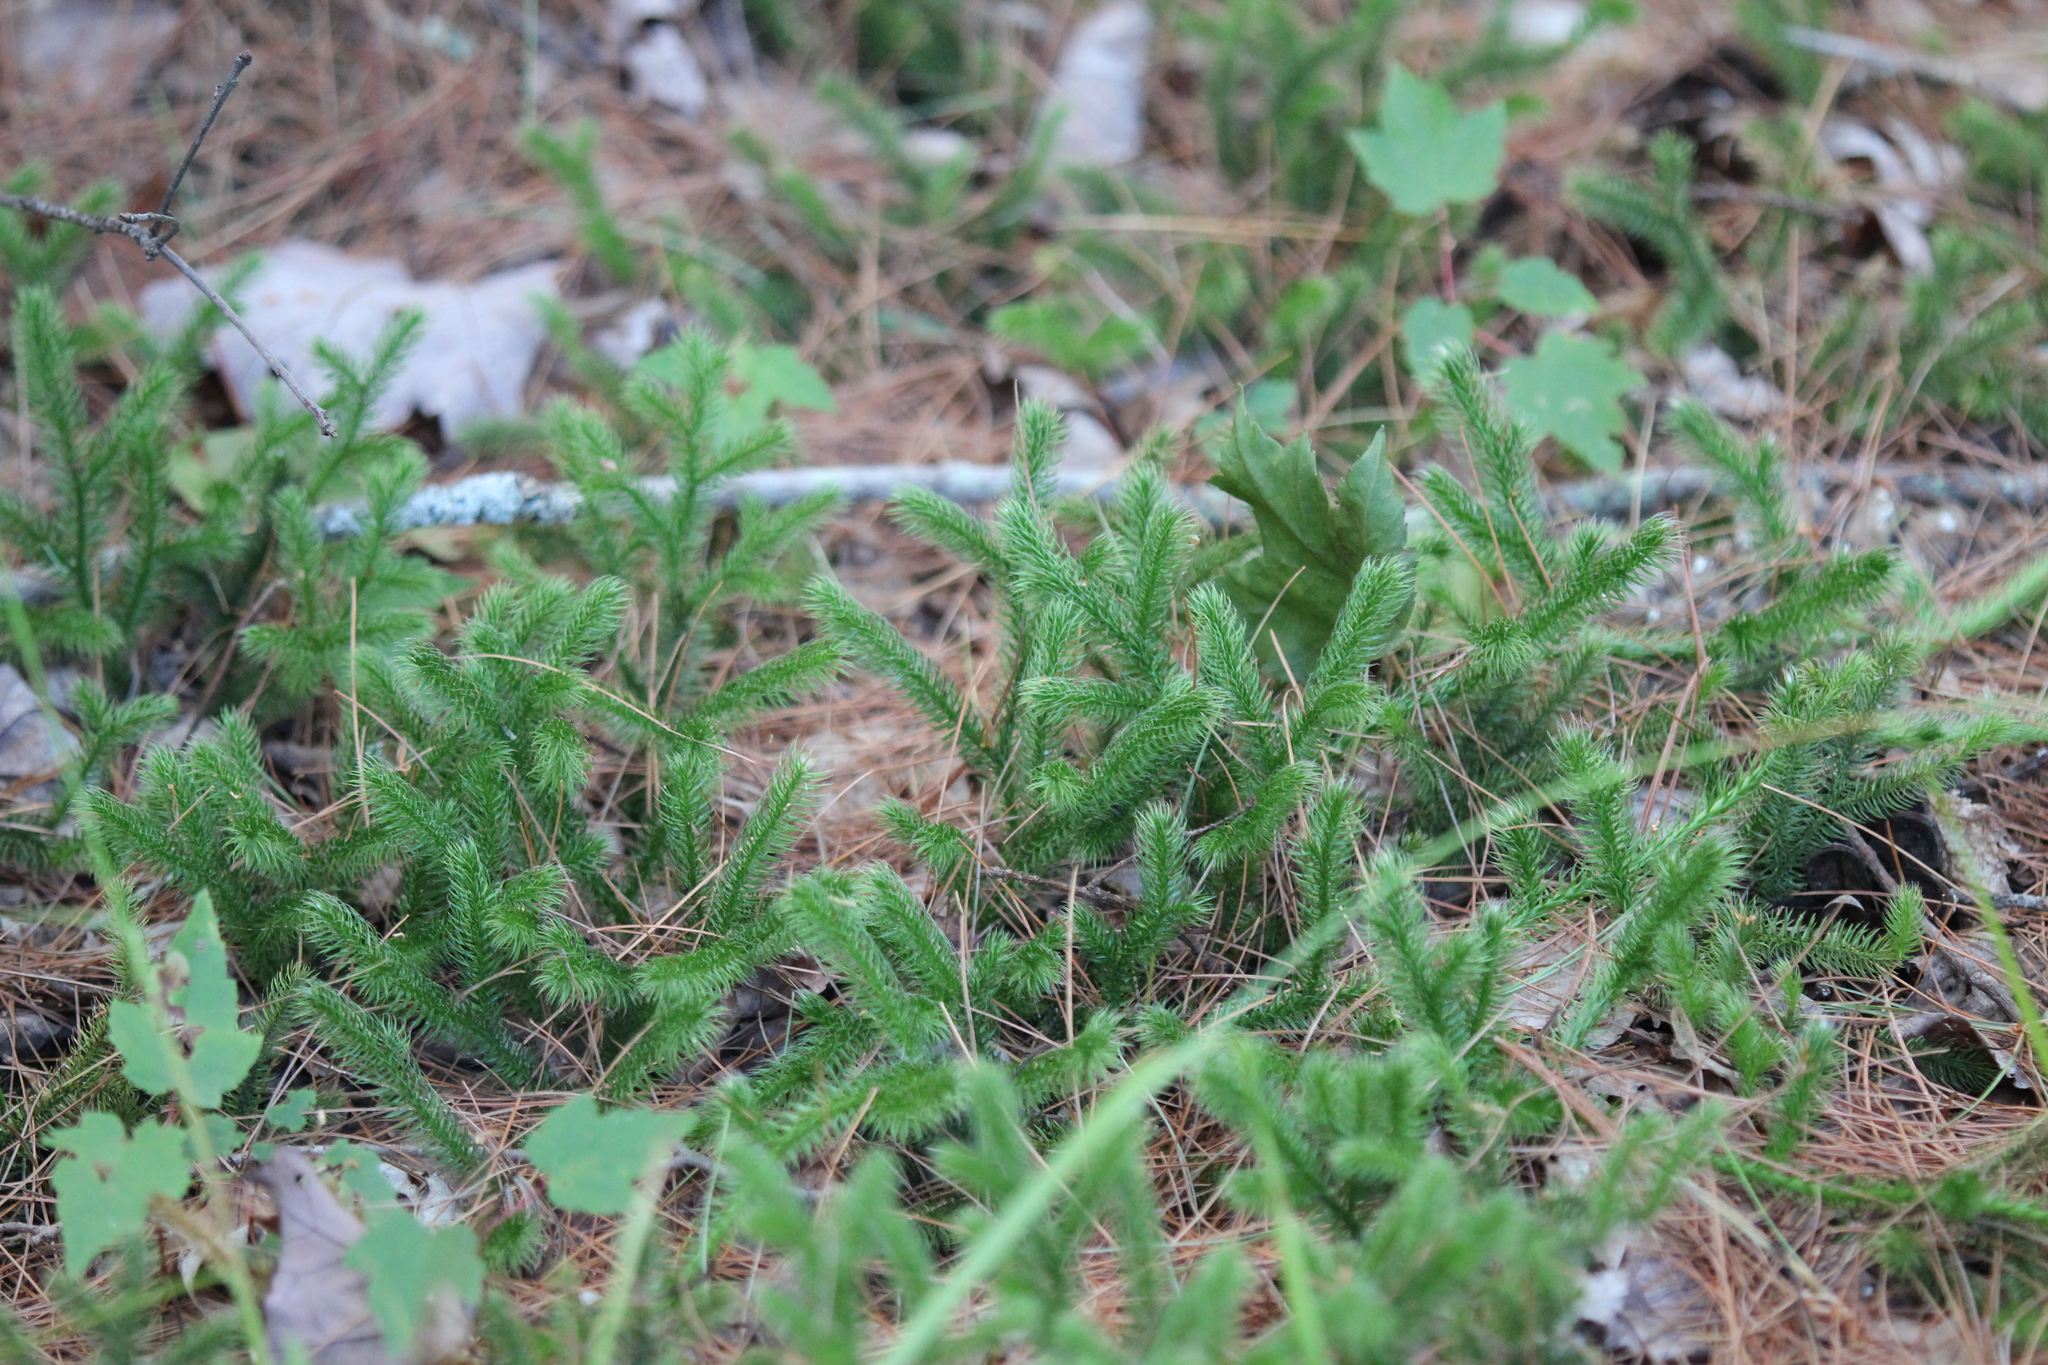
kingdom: Plantae
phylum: Tracheophyta
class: Lycopodiopsida
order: Lycopodiales
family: Lycopodiaceae
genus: Lycopodium
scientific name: Lycopodium clavatum
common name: Stag's-horn clubmoss
